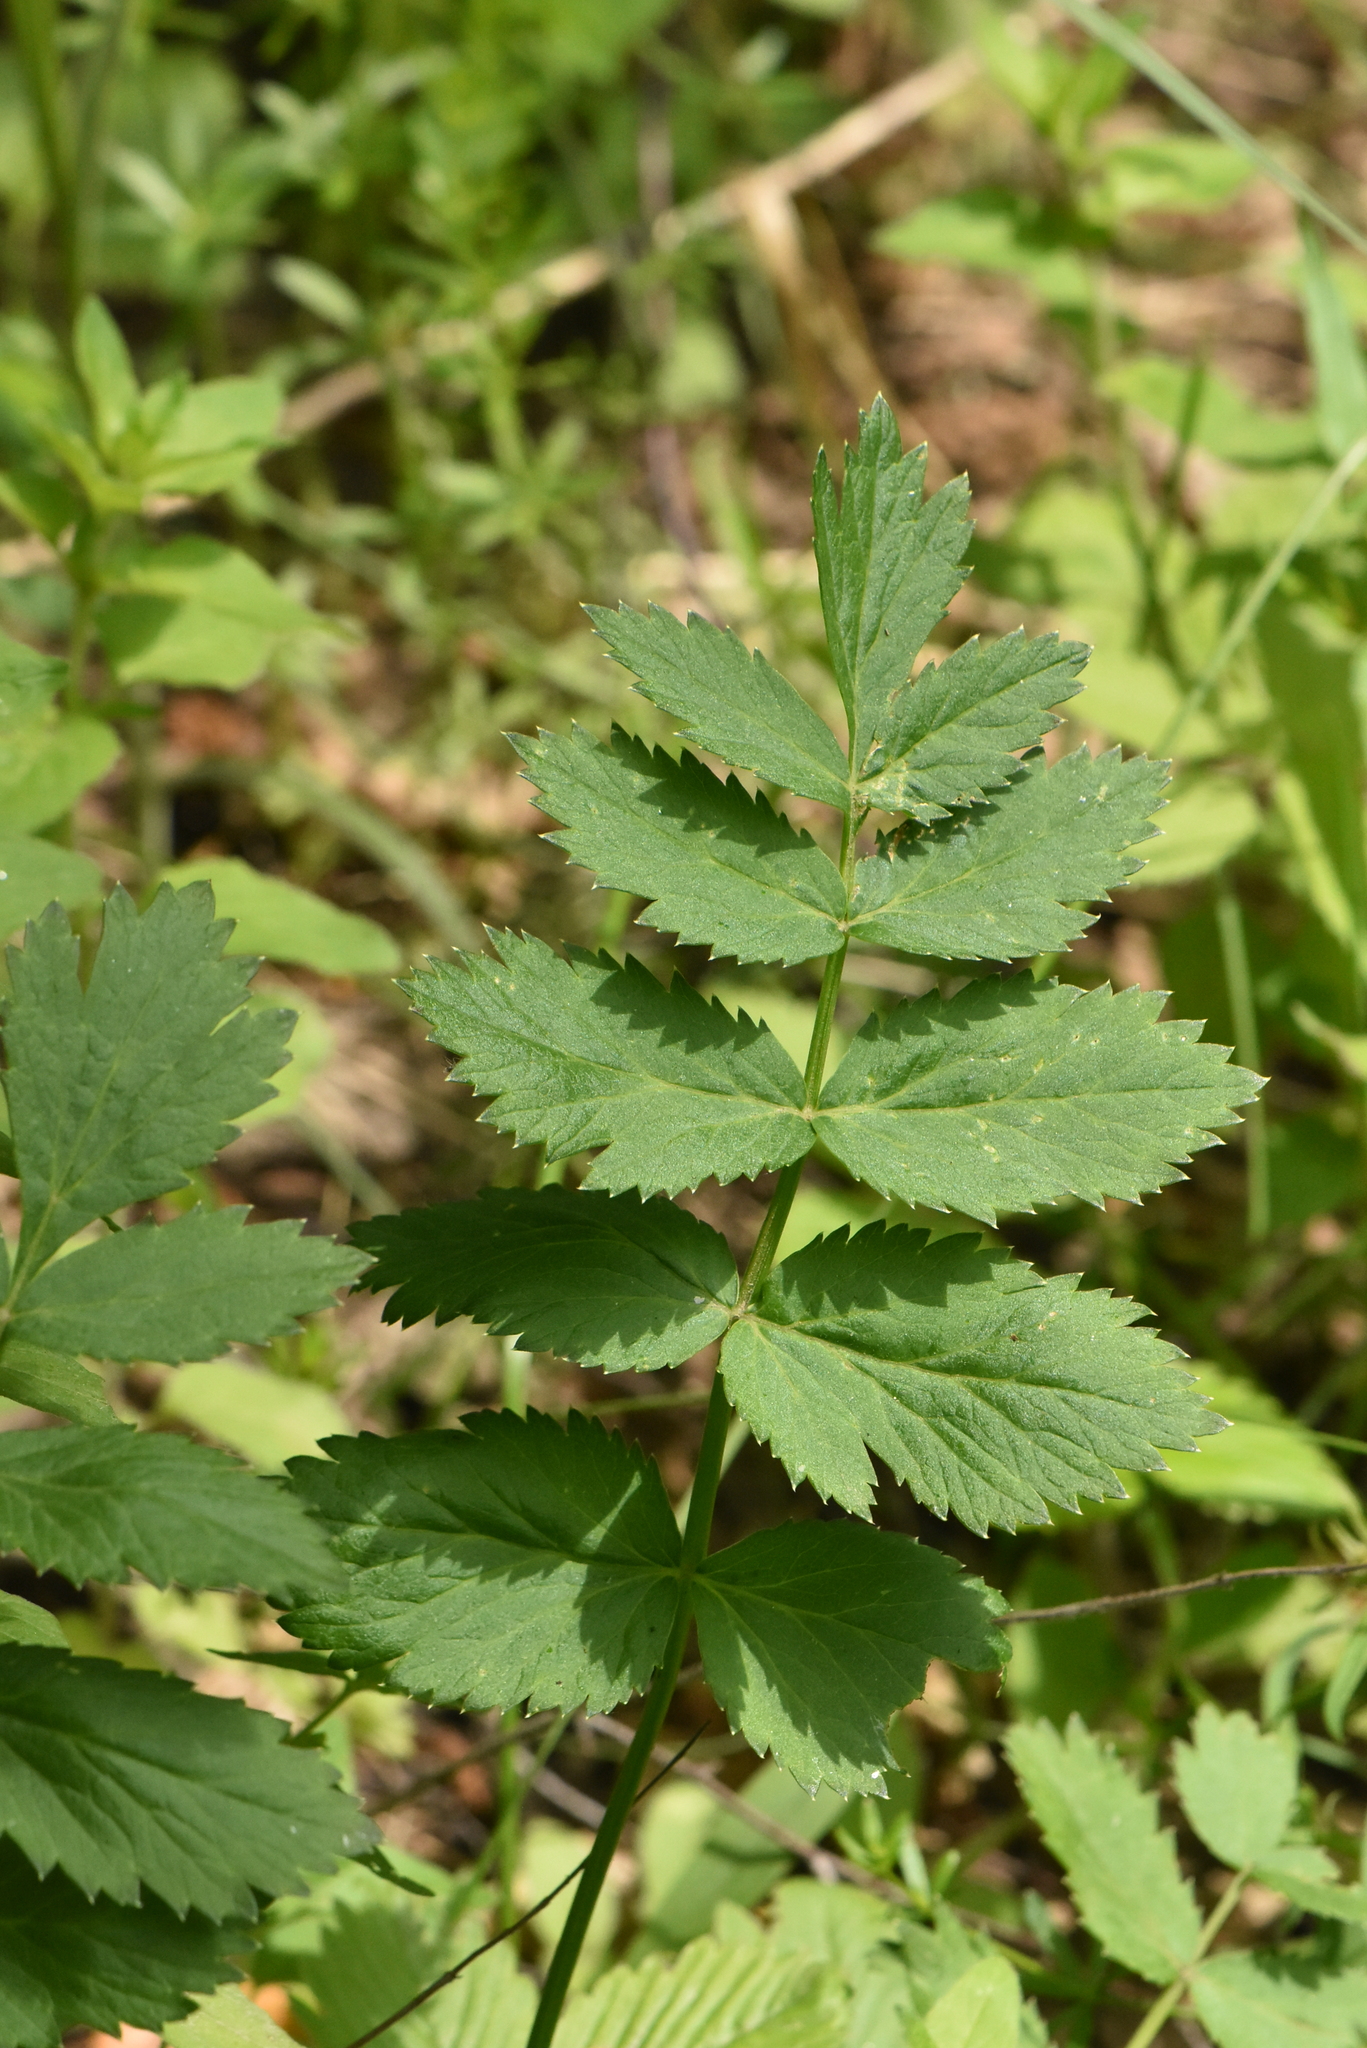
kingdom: Plantae
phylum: Tracheophyta
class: Magnoliopsida
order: Apiales
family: Apiaceae
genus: Pimpinella
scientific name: Pimpinella saxifraga
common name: Burnet-saxifrage
